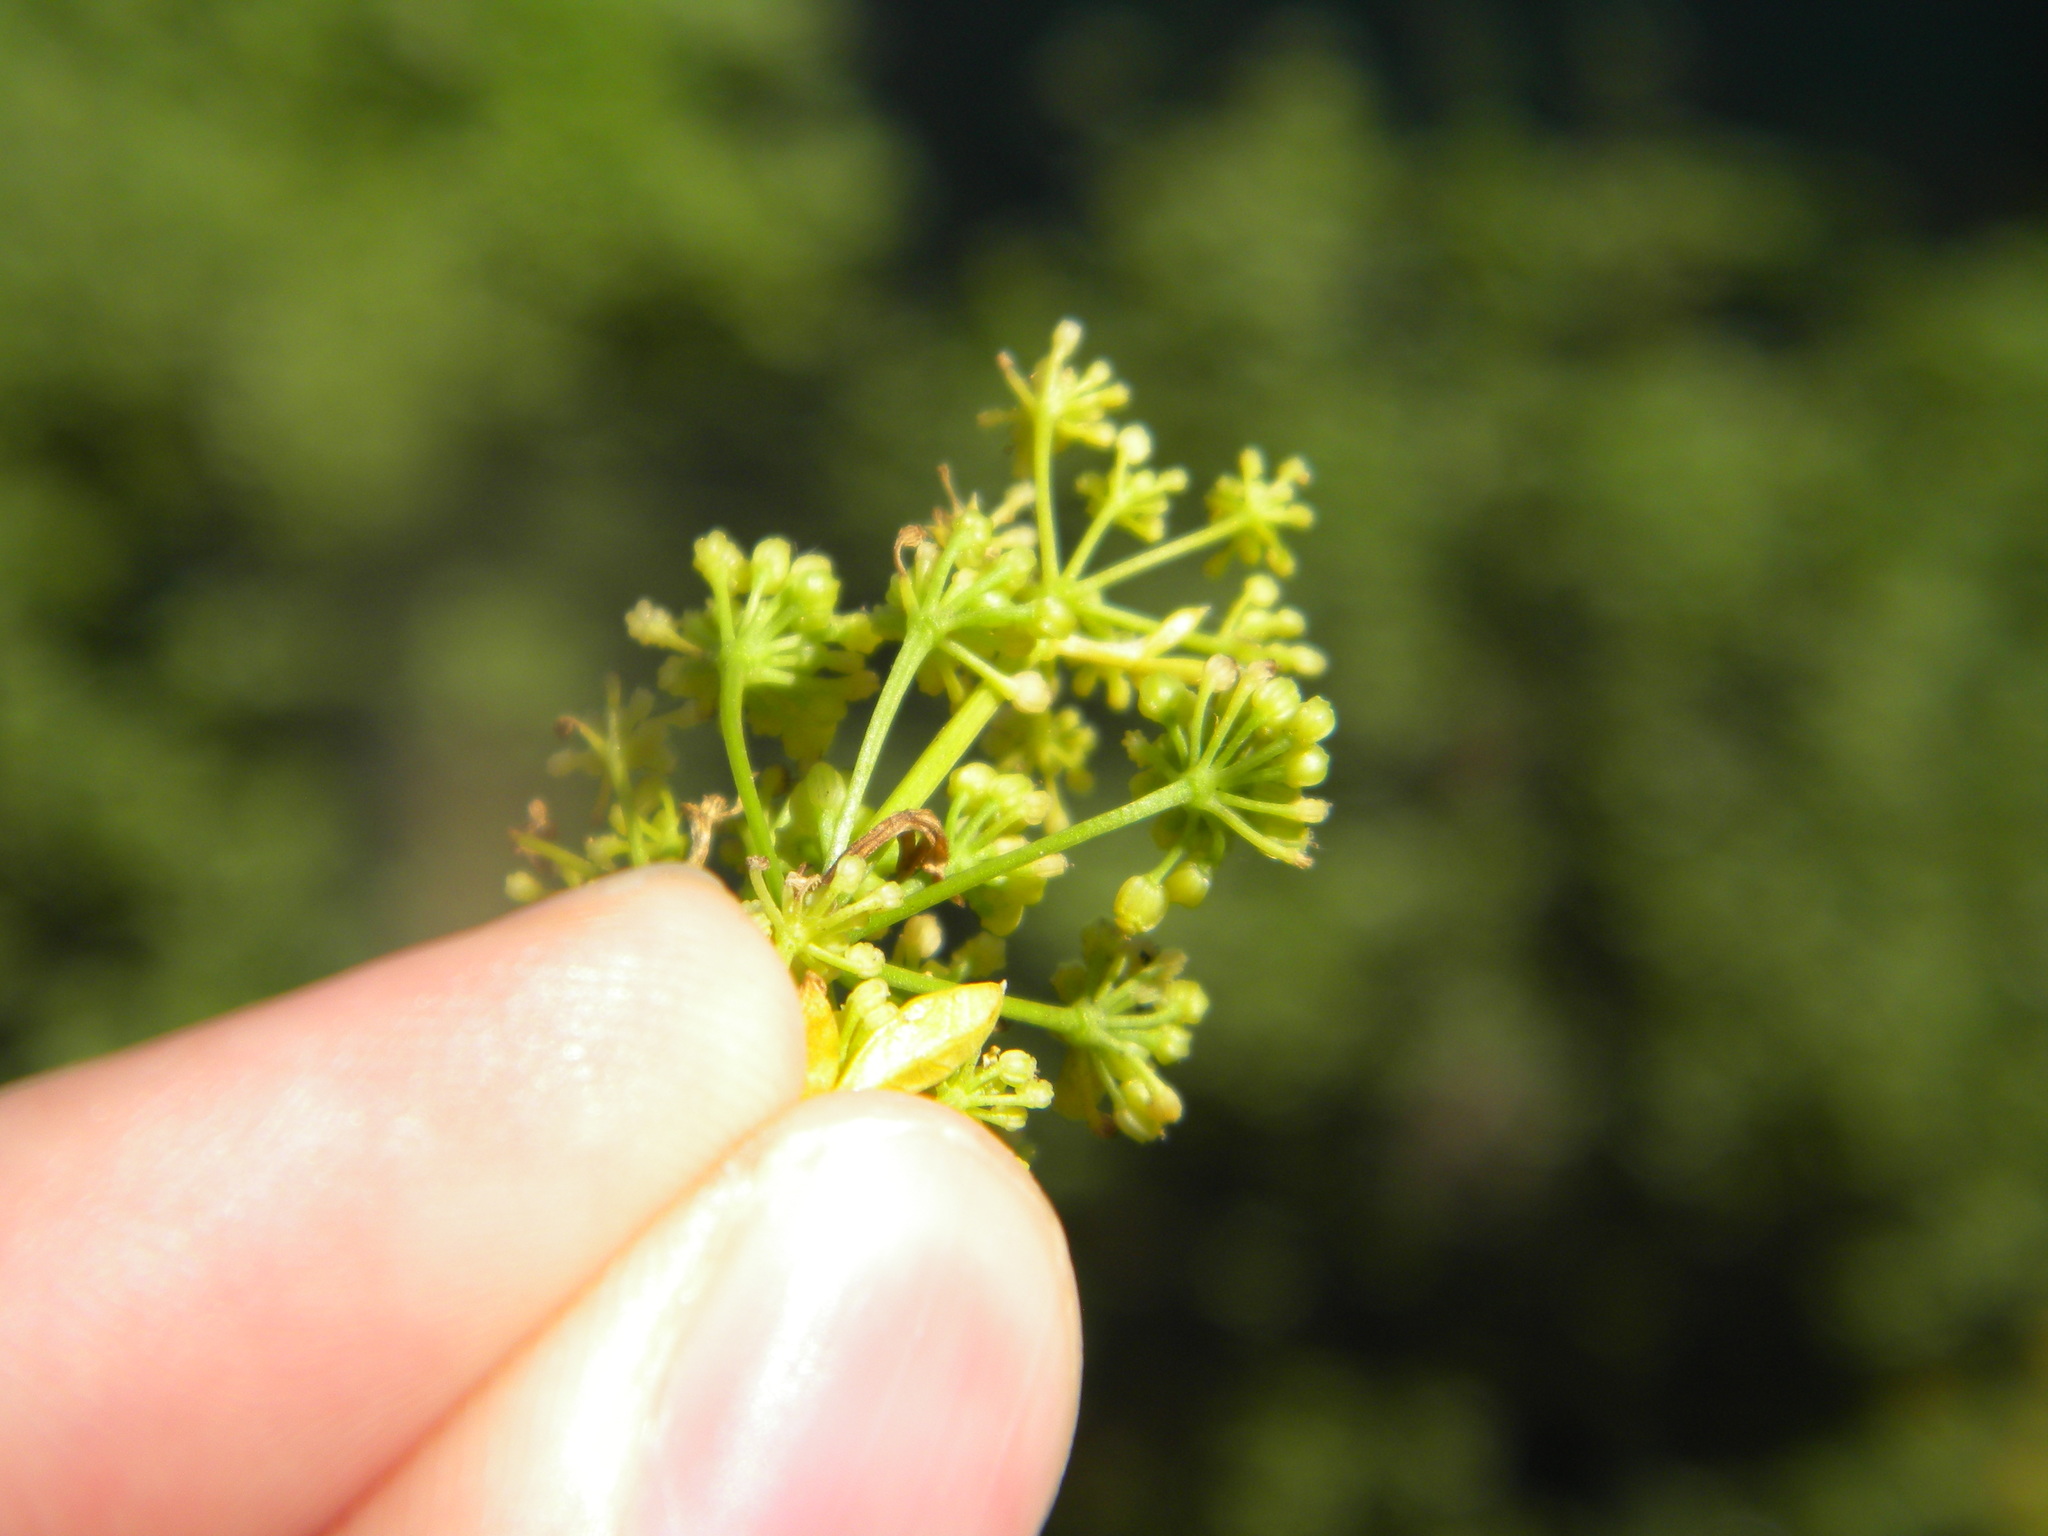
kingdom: Plantae
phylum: Tracheophyta
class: Magnoliopsida
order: Apiales
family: Apiaceae
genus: Apium
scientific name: Apium graveolens
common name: Wild celery
